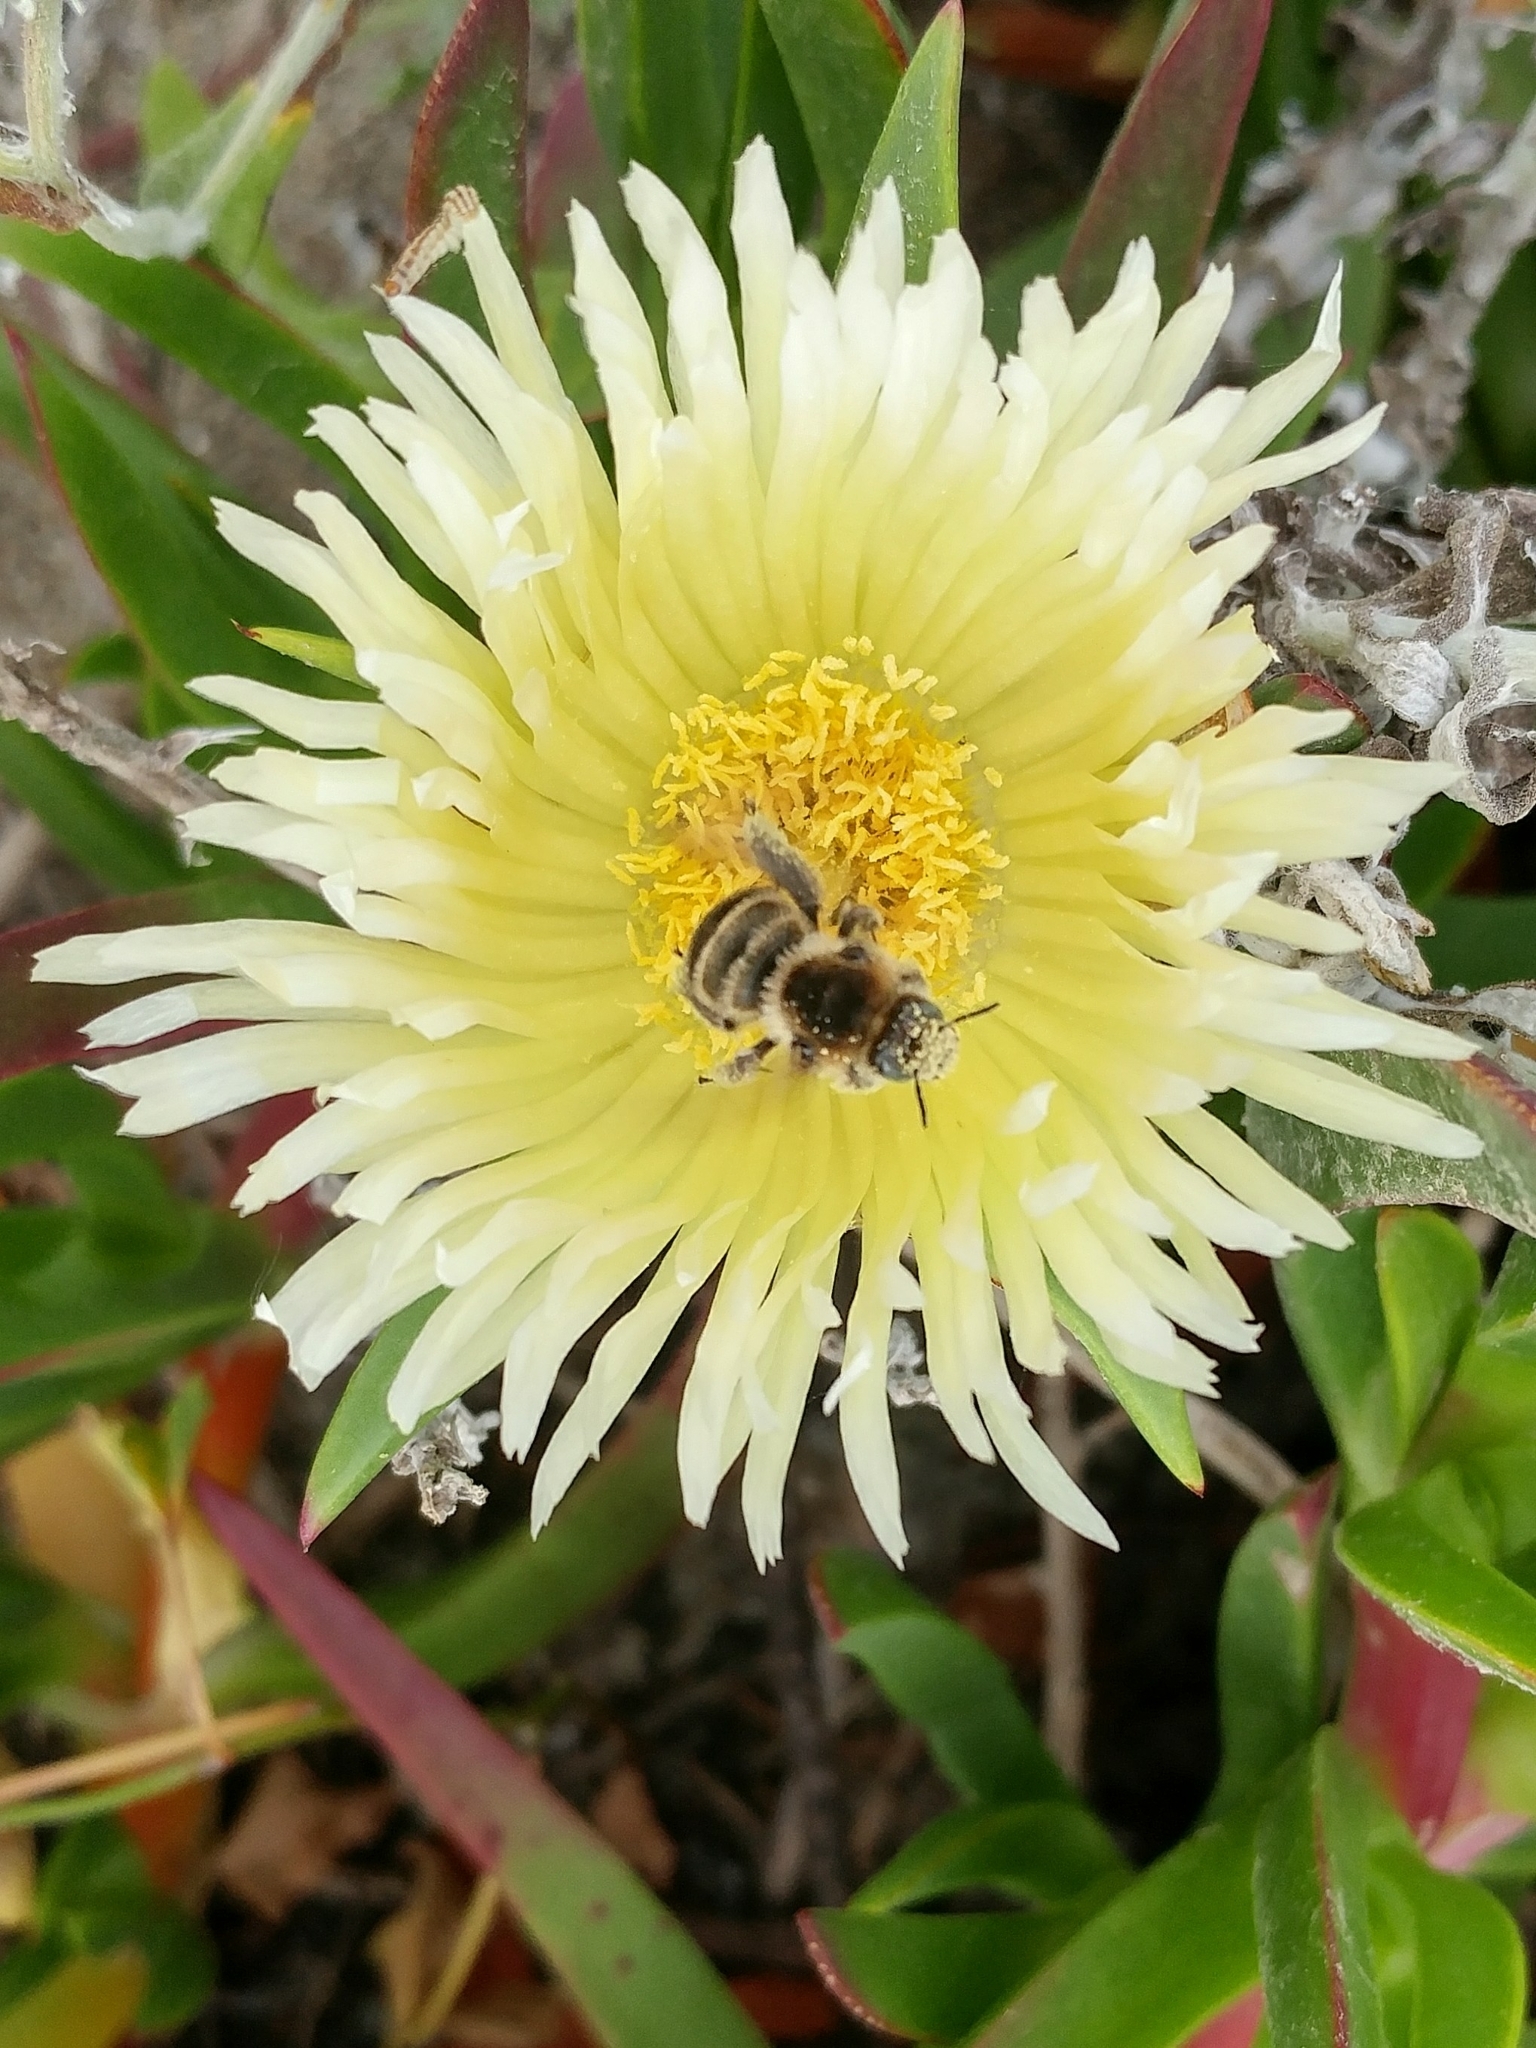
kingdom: Animalia
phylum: Arthropoda
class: Insecta
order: Hymenoptera
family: Apidae
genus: Diadasia
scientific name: Diadasia bituberculata
